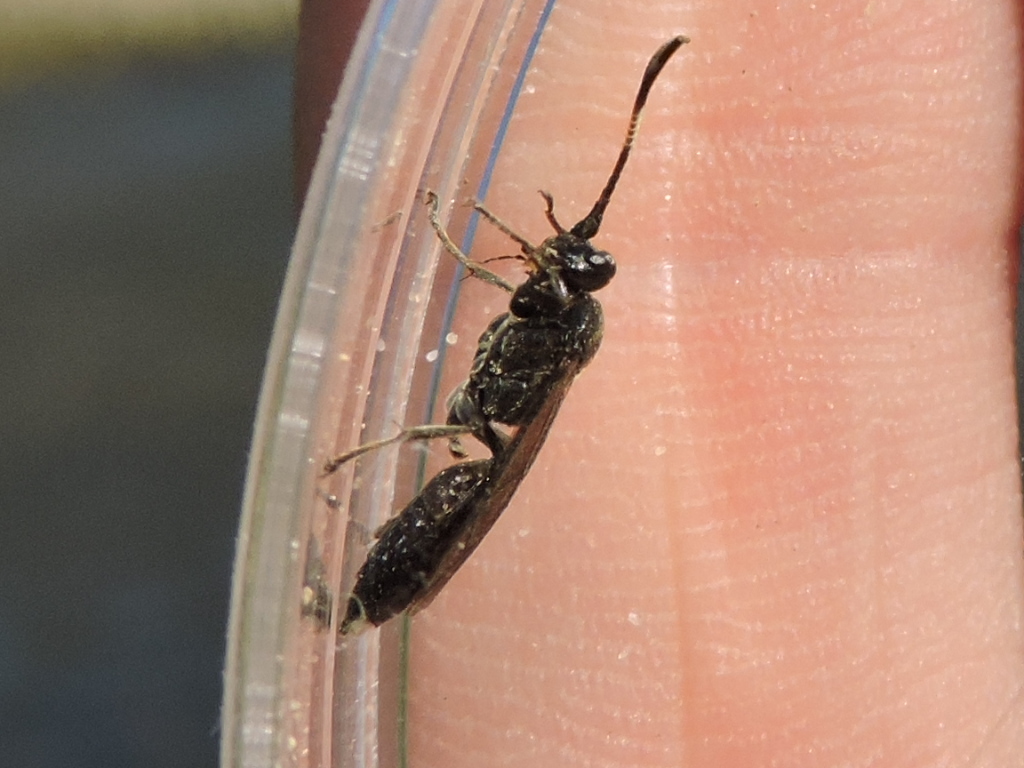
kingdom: Animalia
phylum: Arthropoda
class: Insecta
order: Hymenoptera
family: Ichneumonidae
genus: Vulgichneumon
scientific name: Vulgichneumon brevicinctor
